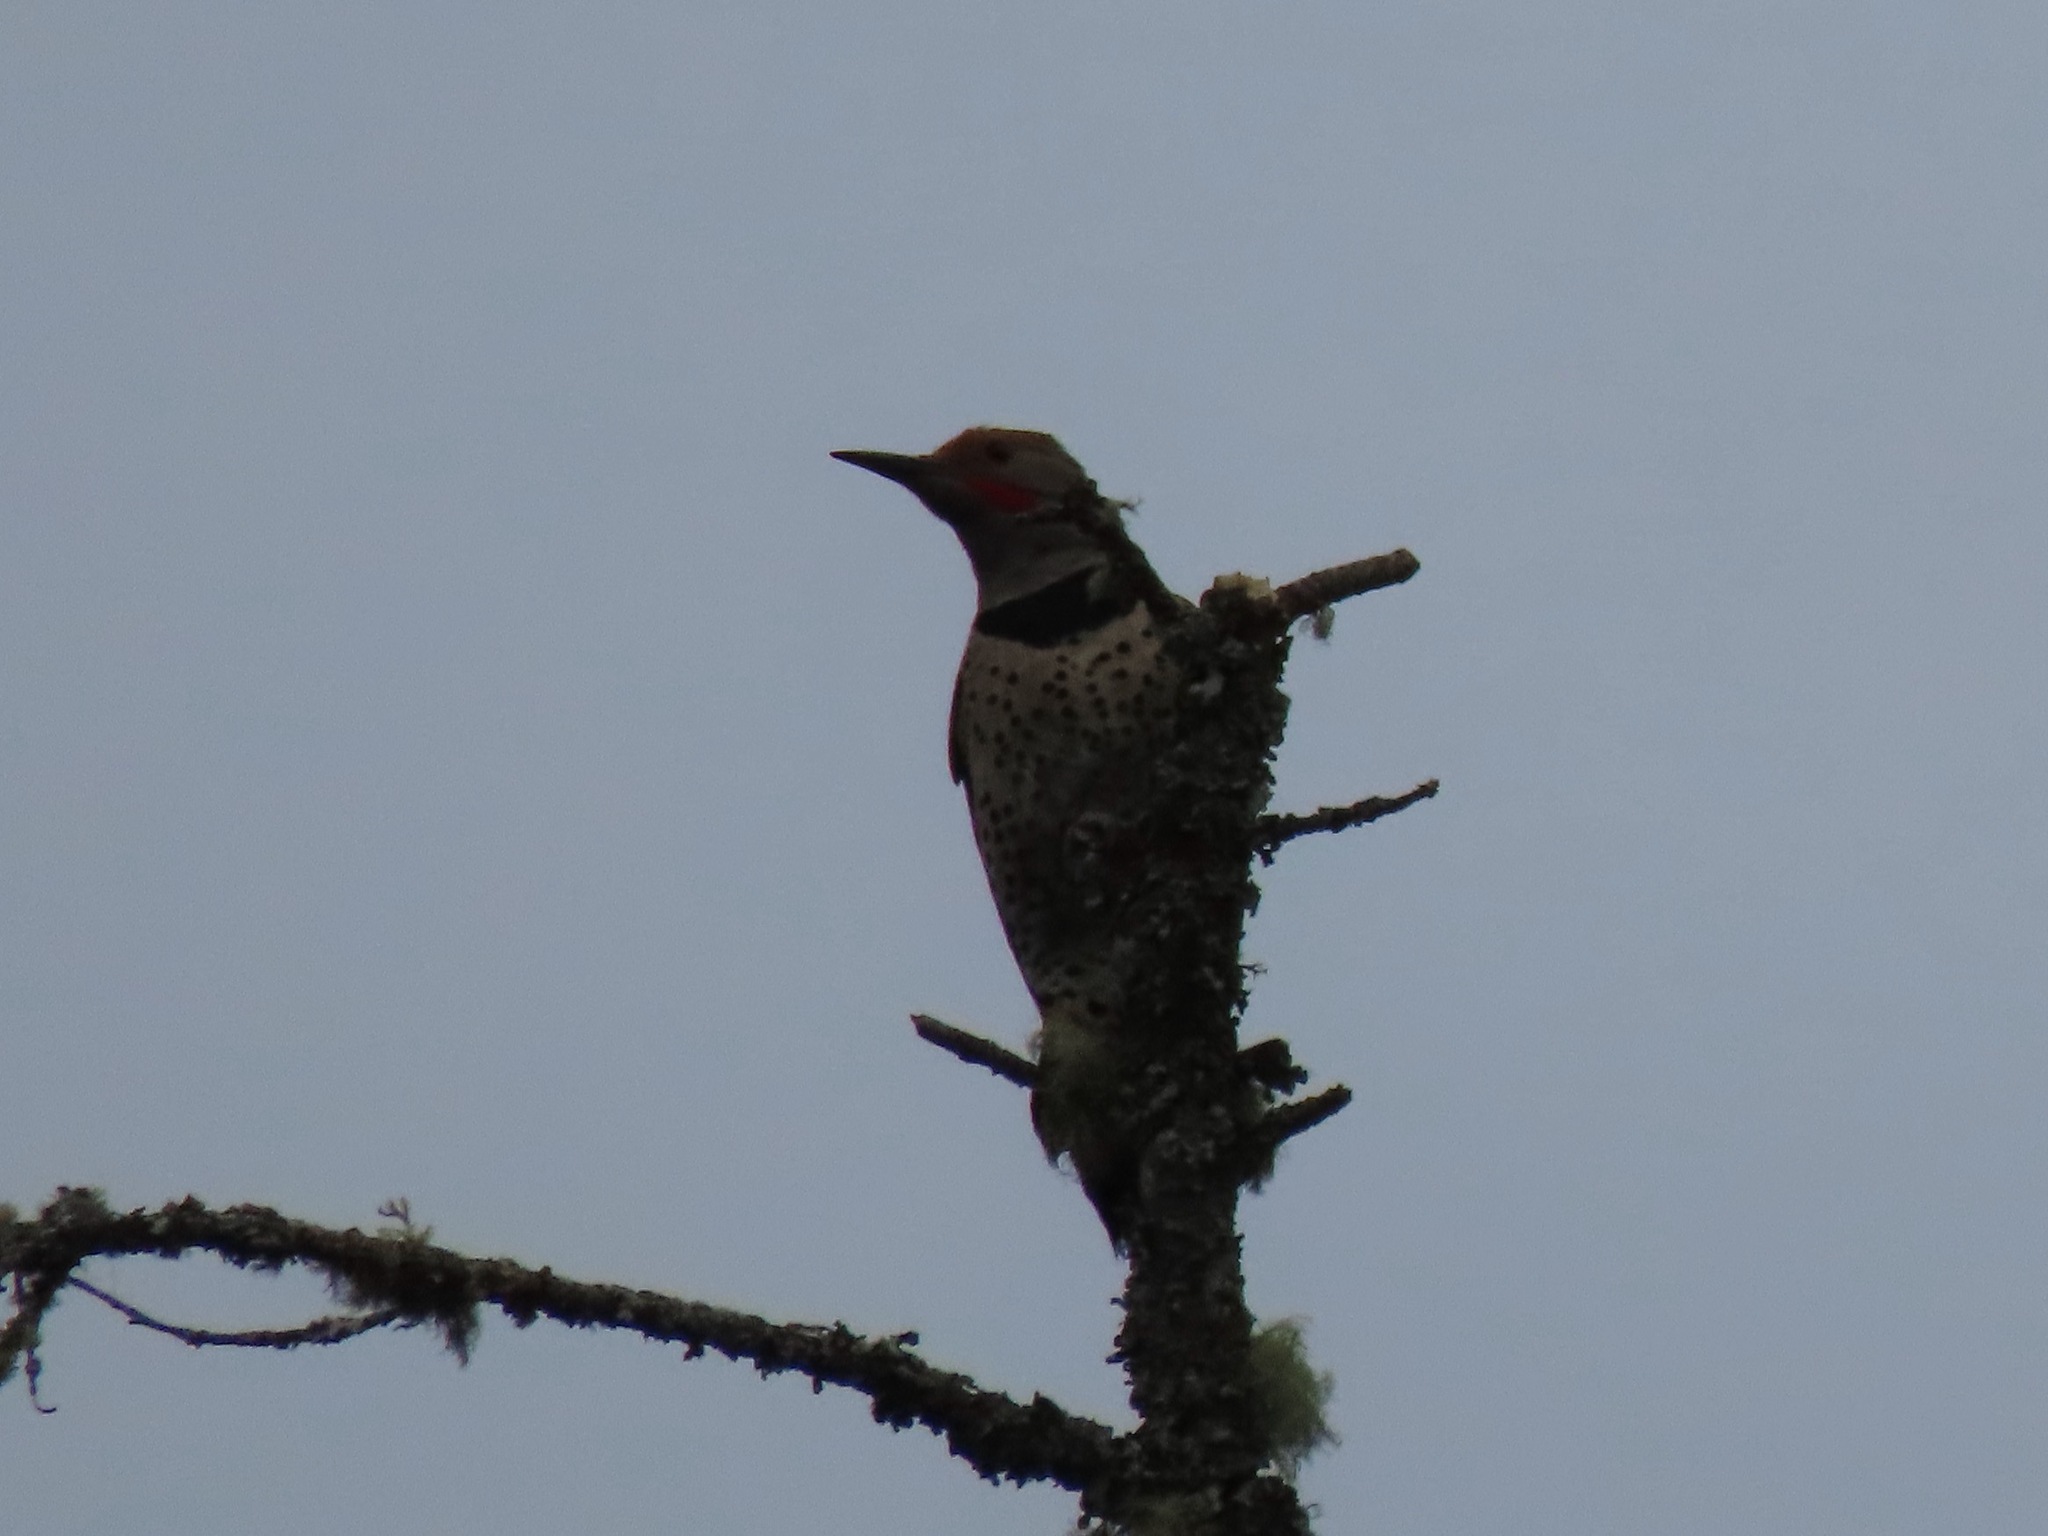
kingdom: Animalia
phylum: Chordata
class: Aves
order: Piciformes
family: Picidae
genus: Colaptes
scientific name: Colaptes auratus
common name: Northern flicker
